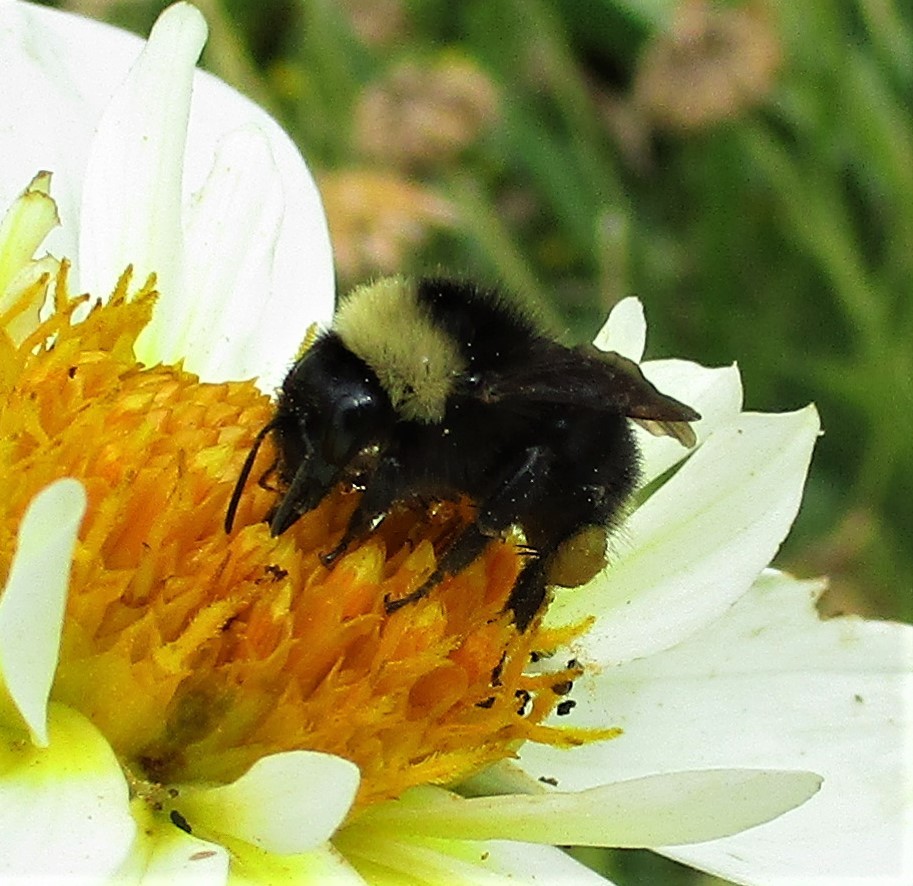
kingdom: Animalia
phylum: Arthropoda
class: Insecta
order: Hymenoptera
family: Apidae
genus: Bombus
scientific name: Bombus californicus
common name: California bumble bee
